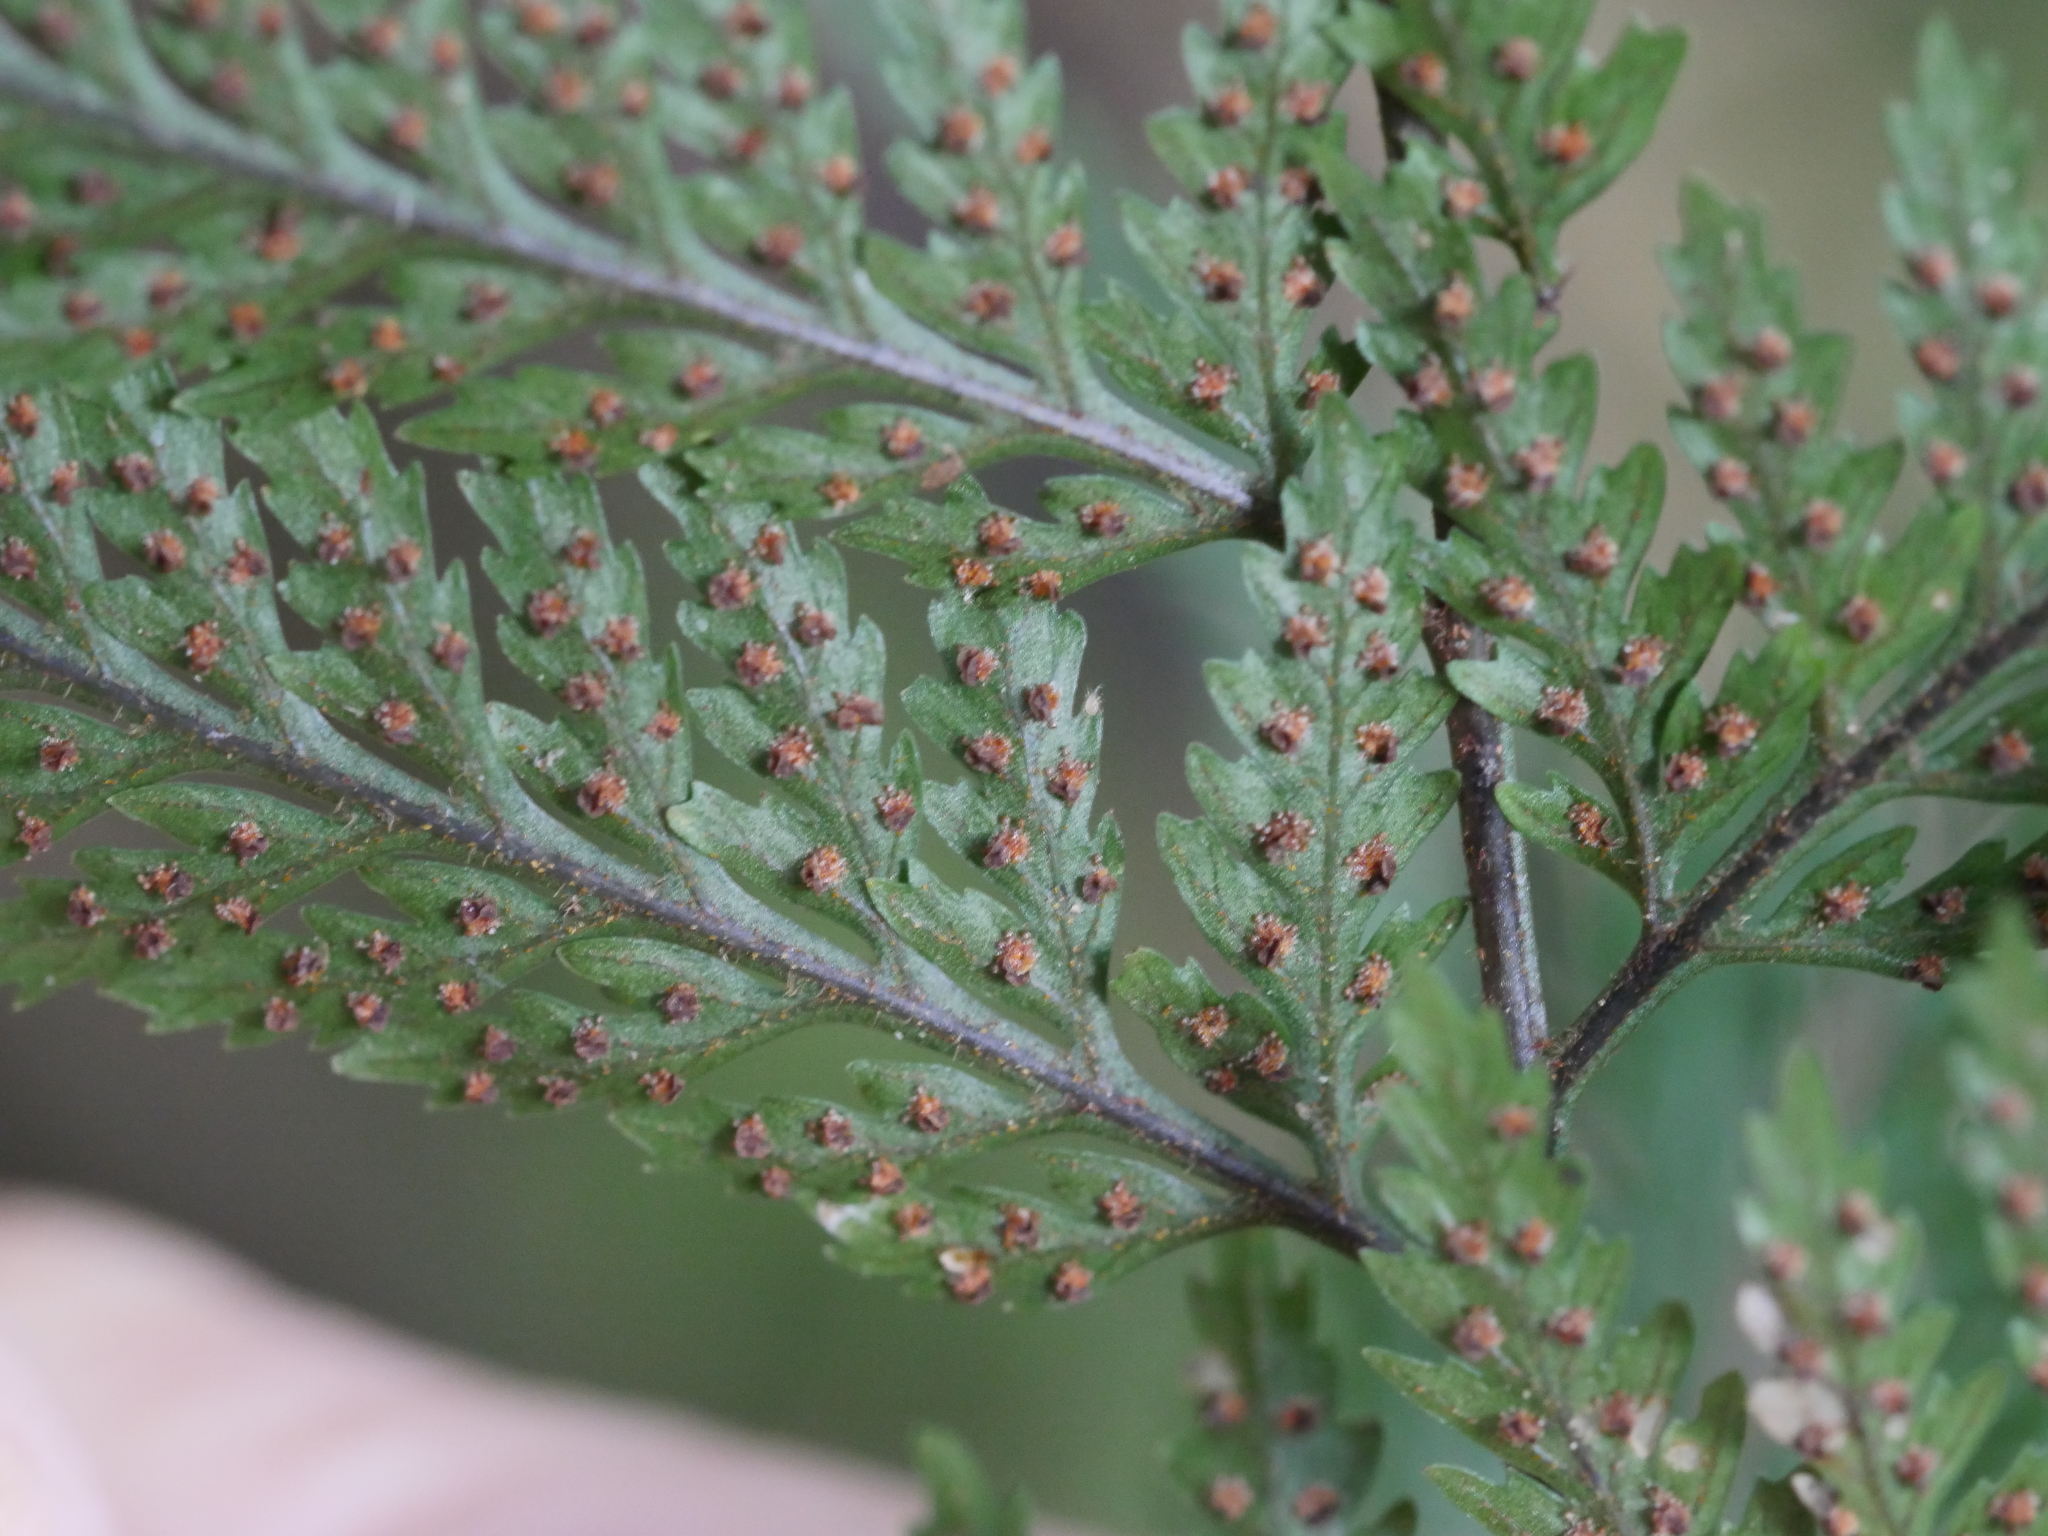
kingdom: Plantae
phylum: Tracheophyta
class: Polypodiopsida
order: Polypodiales
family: Dryopteridaceae
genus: Parapolystichum
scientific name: Parapolystichum glabellum
